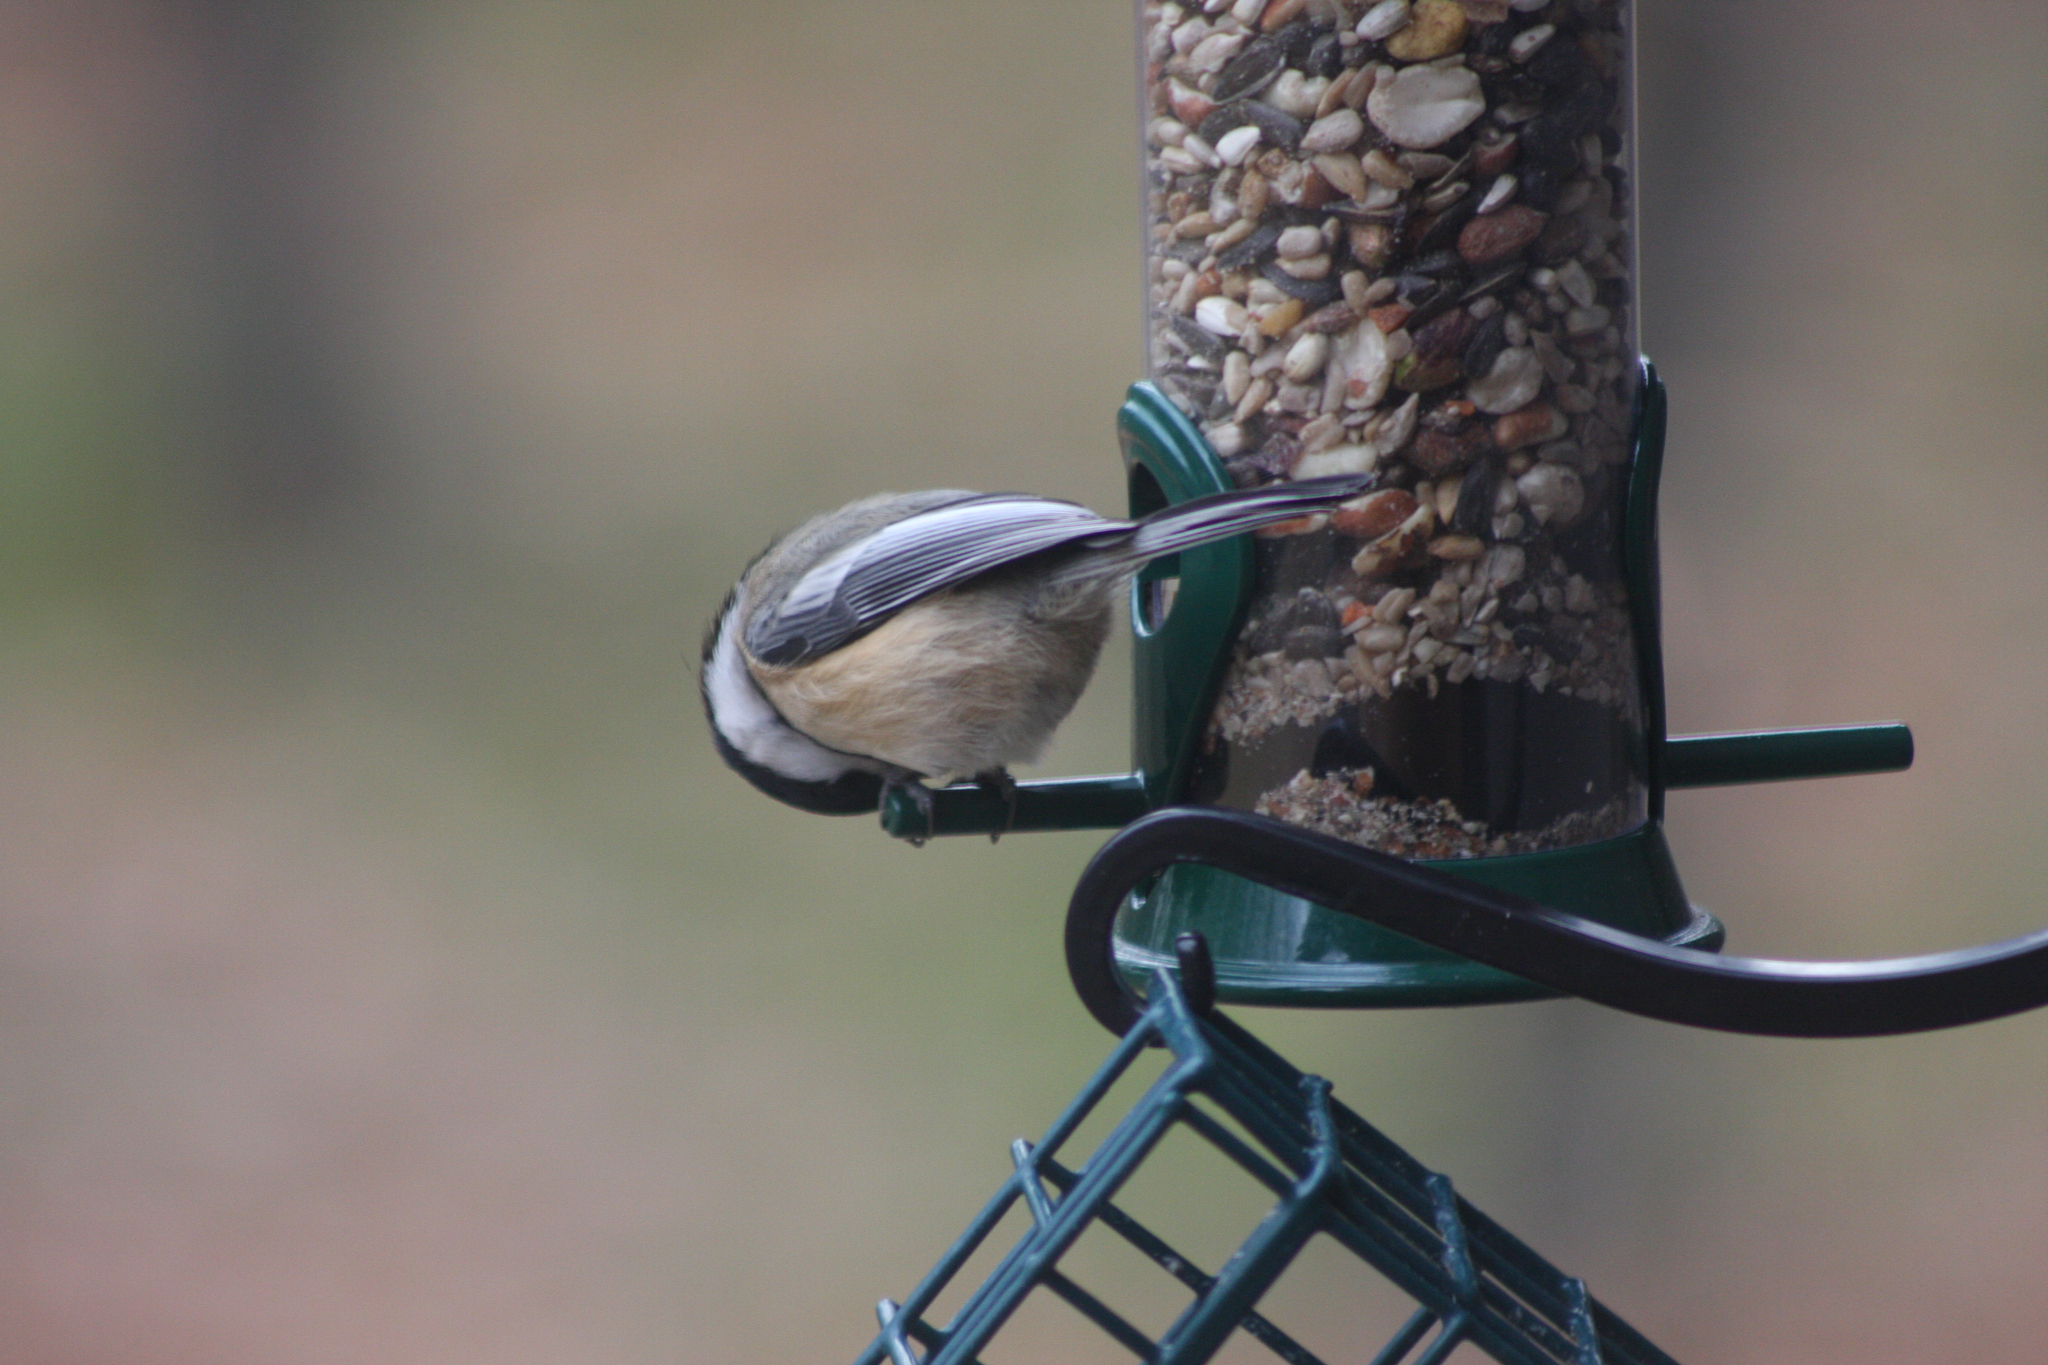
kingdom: Animalia
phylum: Chordata
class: Aves
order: Passeriformes
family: Paridae
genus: Poecile
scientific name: Poecile atricapillus
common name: Black-capped chickadee
